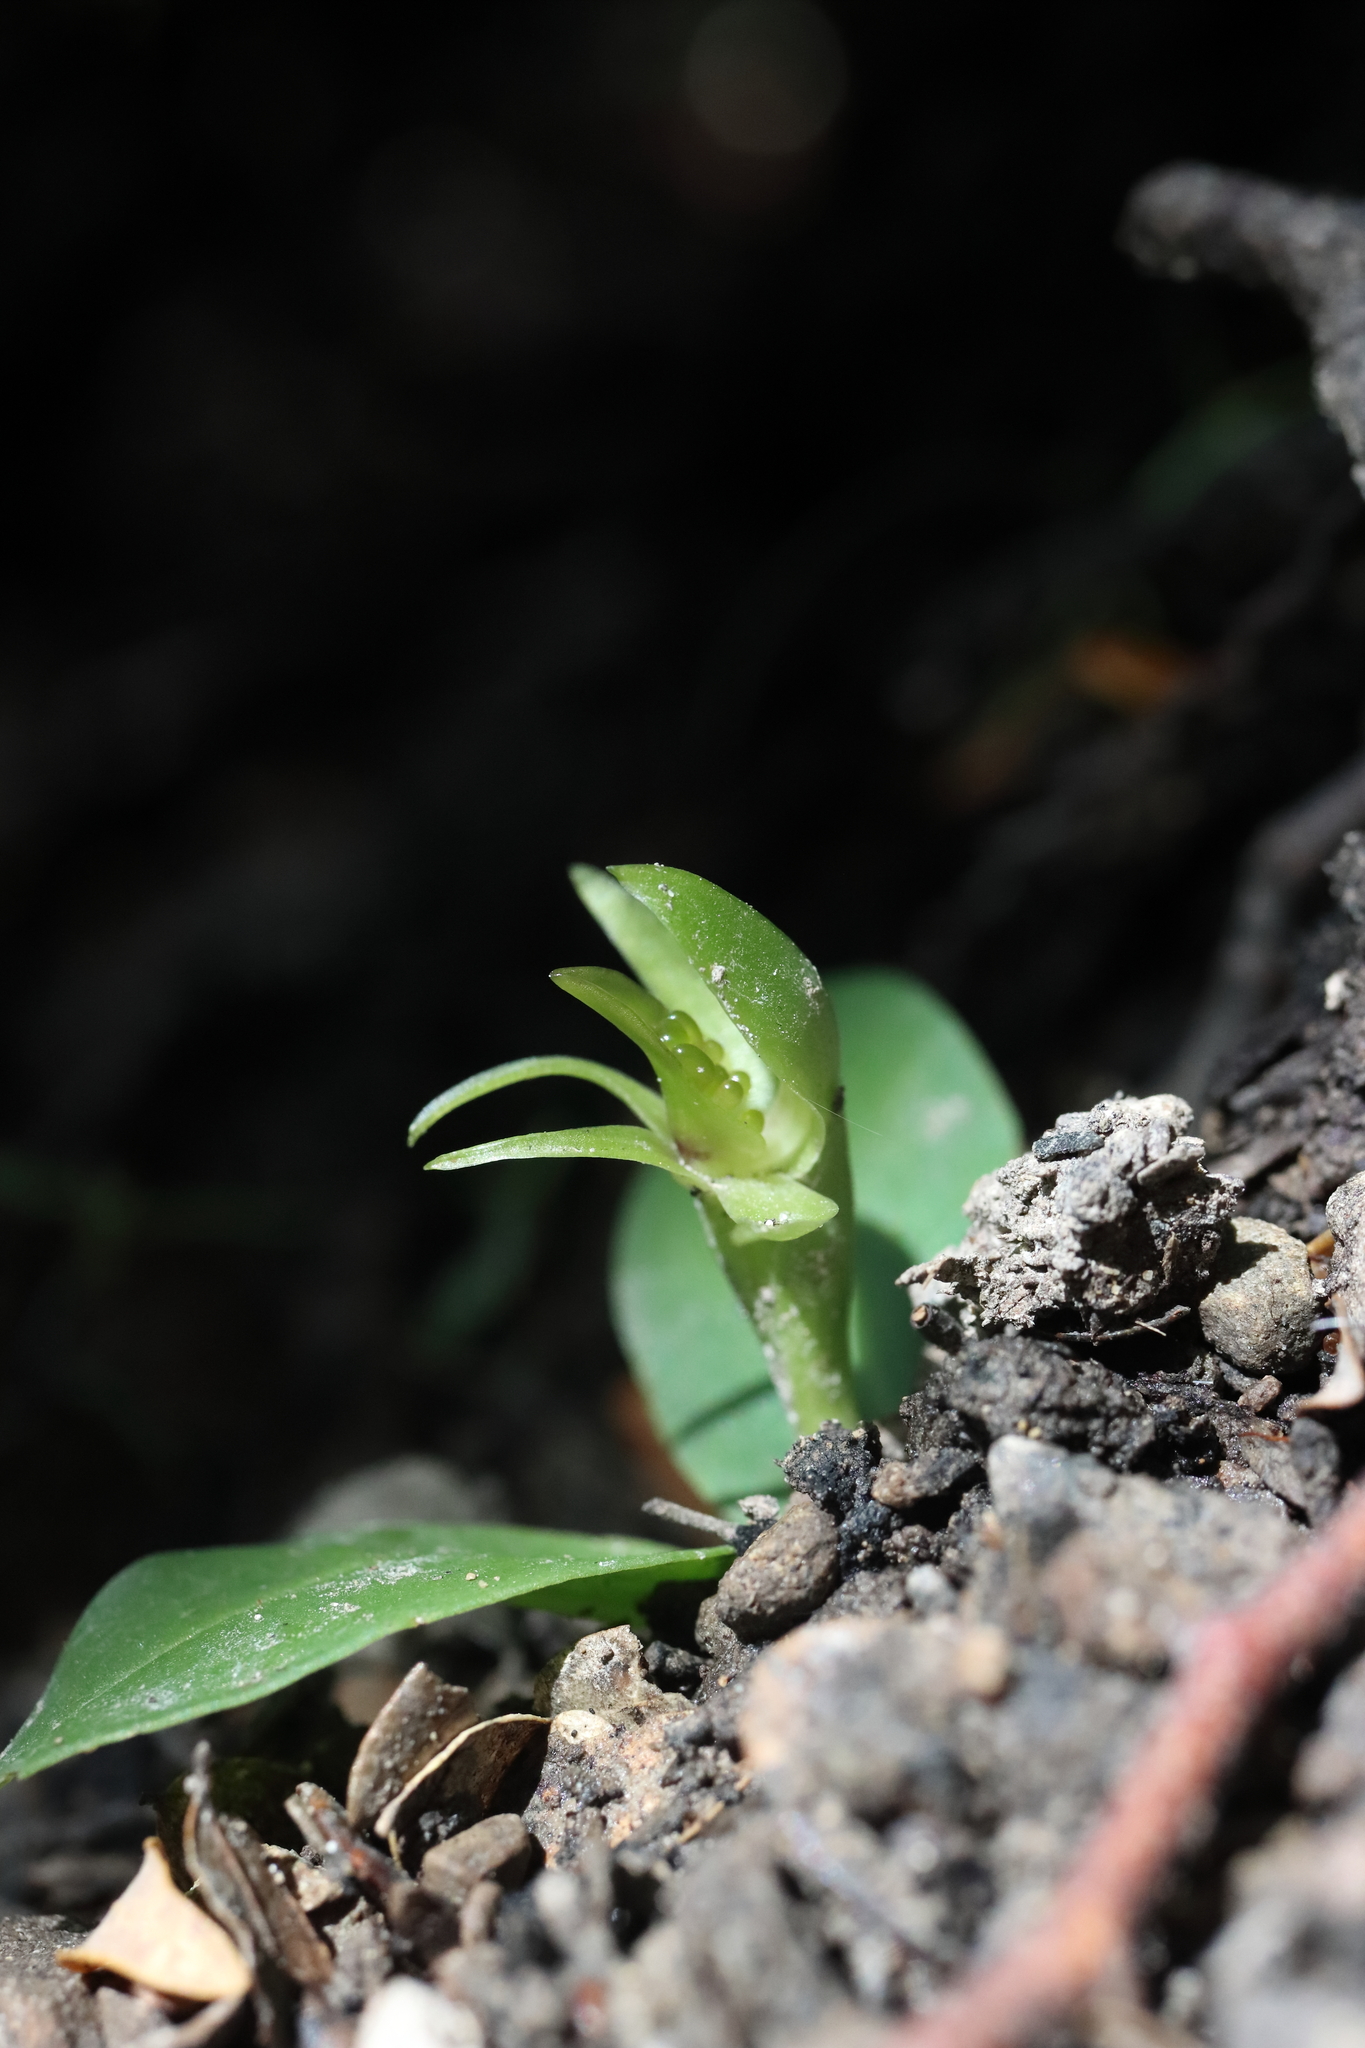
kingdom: Plantae
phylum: Tracheophyta
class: Liliopsida
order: Asparagales
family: Orchidaceae
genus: Chiloglottis
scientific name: Chiloglottis cornuta
